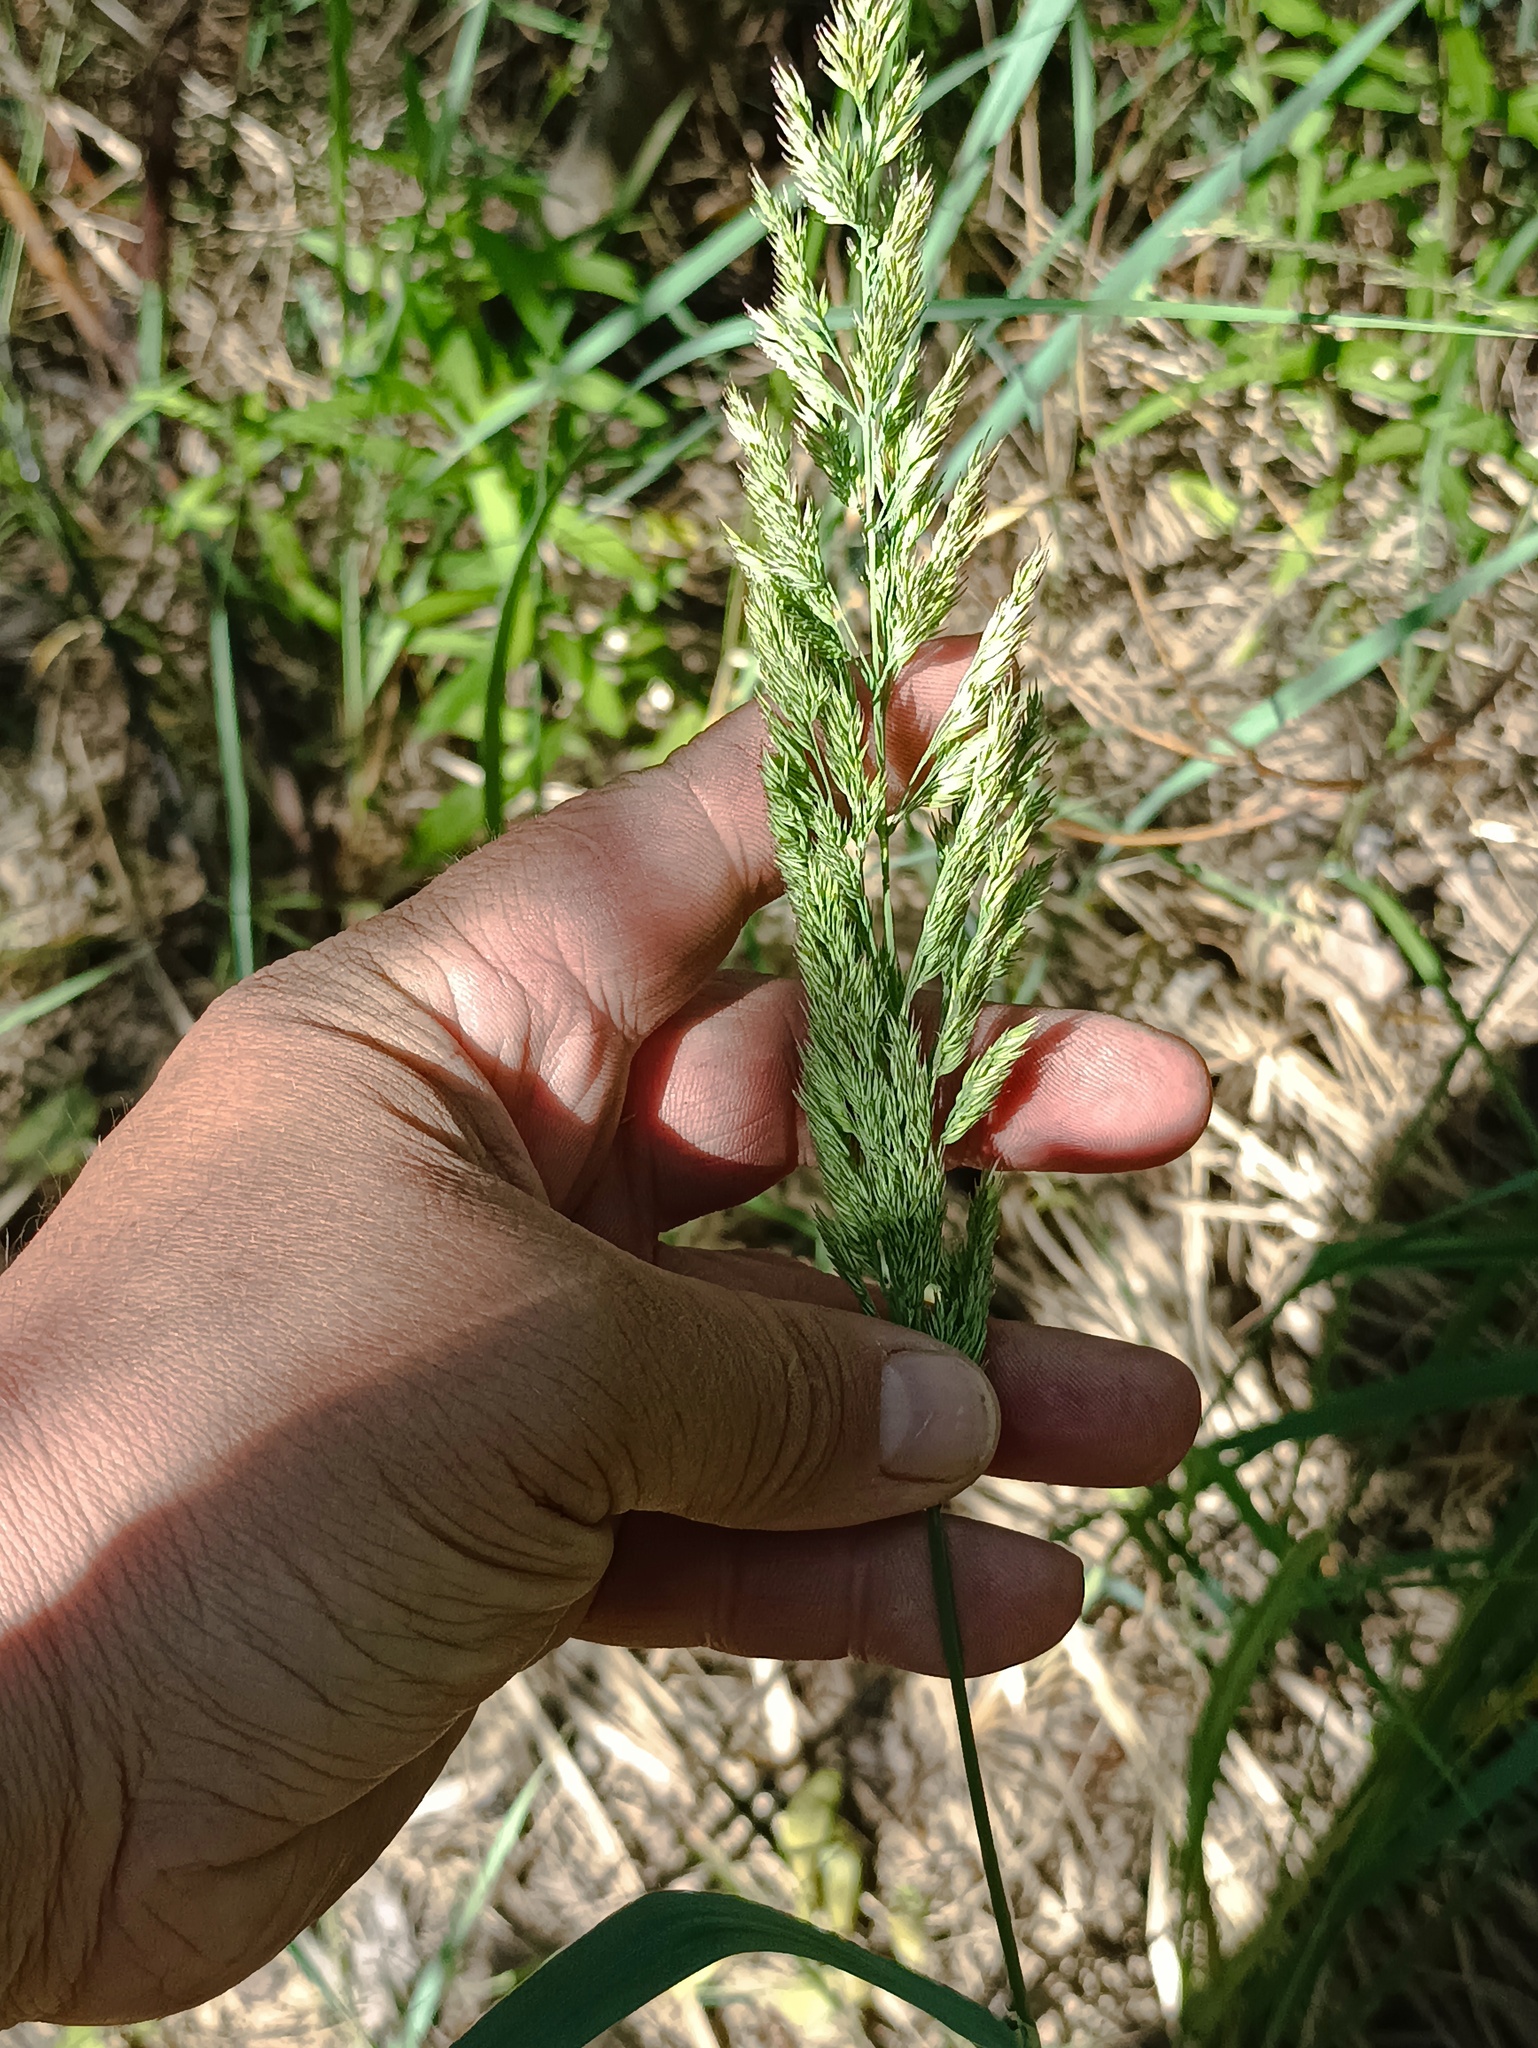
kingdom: Plantae
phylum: Tracheophyta
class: Liliopsida
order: Poales
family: Poaceae
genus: Calamagrostis
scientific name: Calamagrostis epigejos
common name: Wood small-reed
